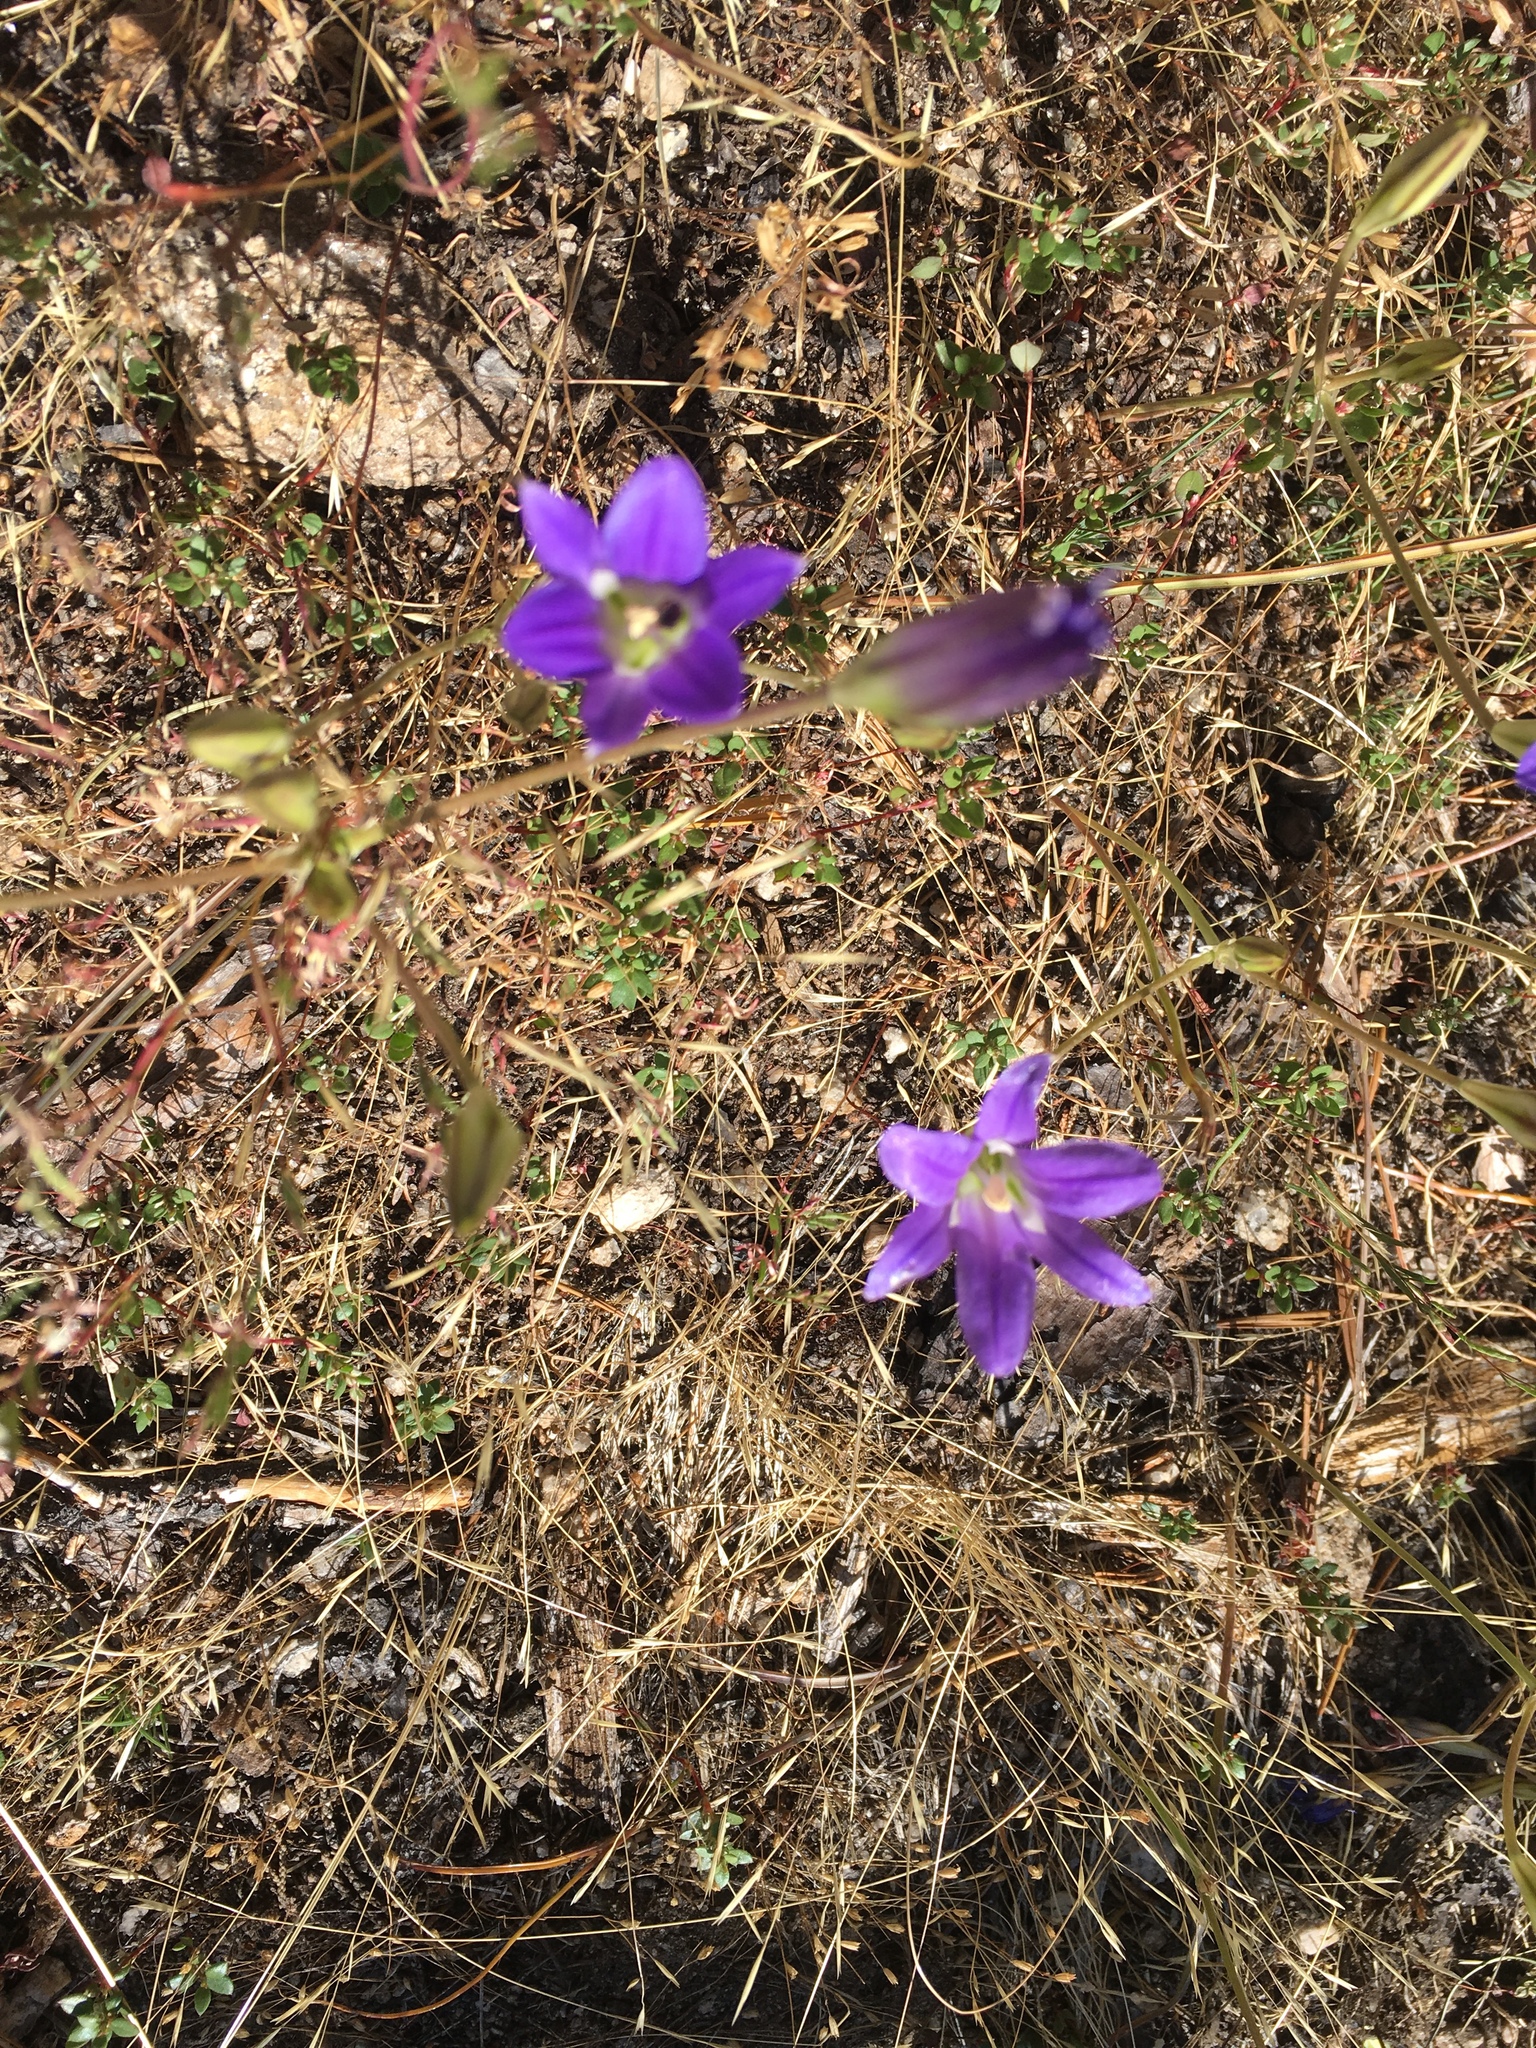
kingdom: Plantae
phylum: Tracheophyta
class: Liliopsida
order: Asparagales
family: Asparagaceae
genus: Brodiaea
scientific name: Brodiaea elegans
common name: Elegant cluster-lily
